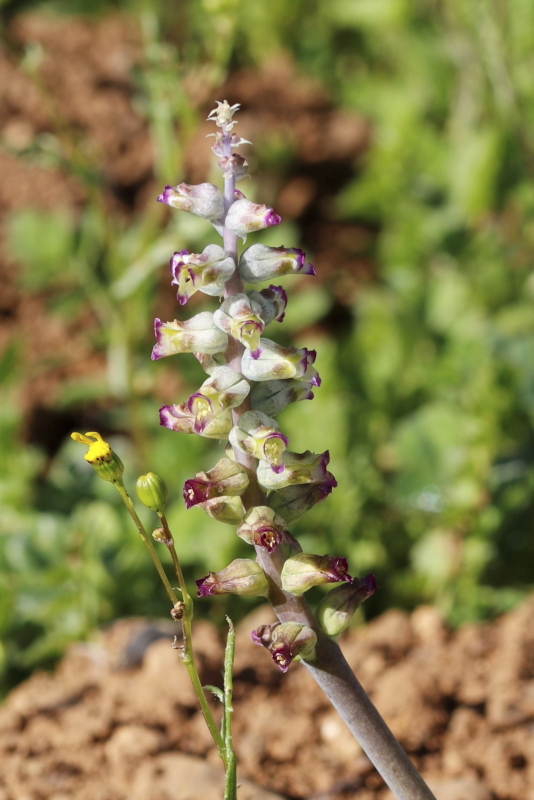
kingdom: Plantae
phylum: Tracheophyta
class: Liliopsida
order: Asparagales
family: Asparagaceae
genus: Lachenalia
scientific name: Lachenalia obscura
